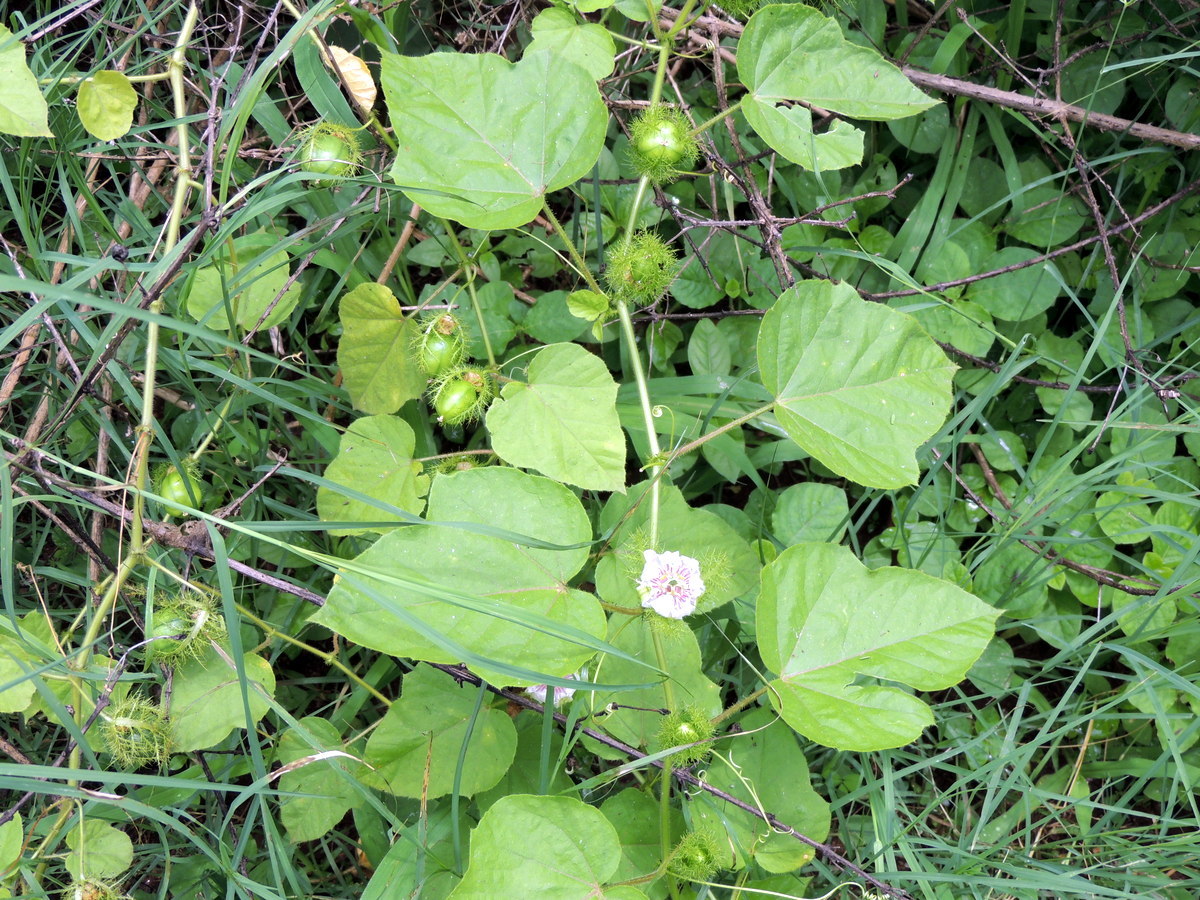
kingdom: Plantae
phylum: Tracheophyta
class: Magnoliopsida
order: Malpighiales
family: Passifloraceae
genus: Passiflora
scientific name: Passiflora foetida
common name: Fetid passionflower
